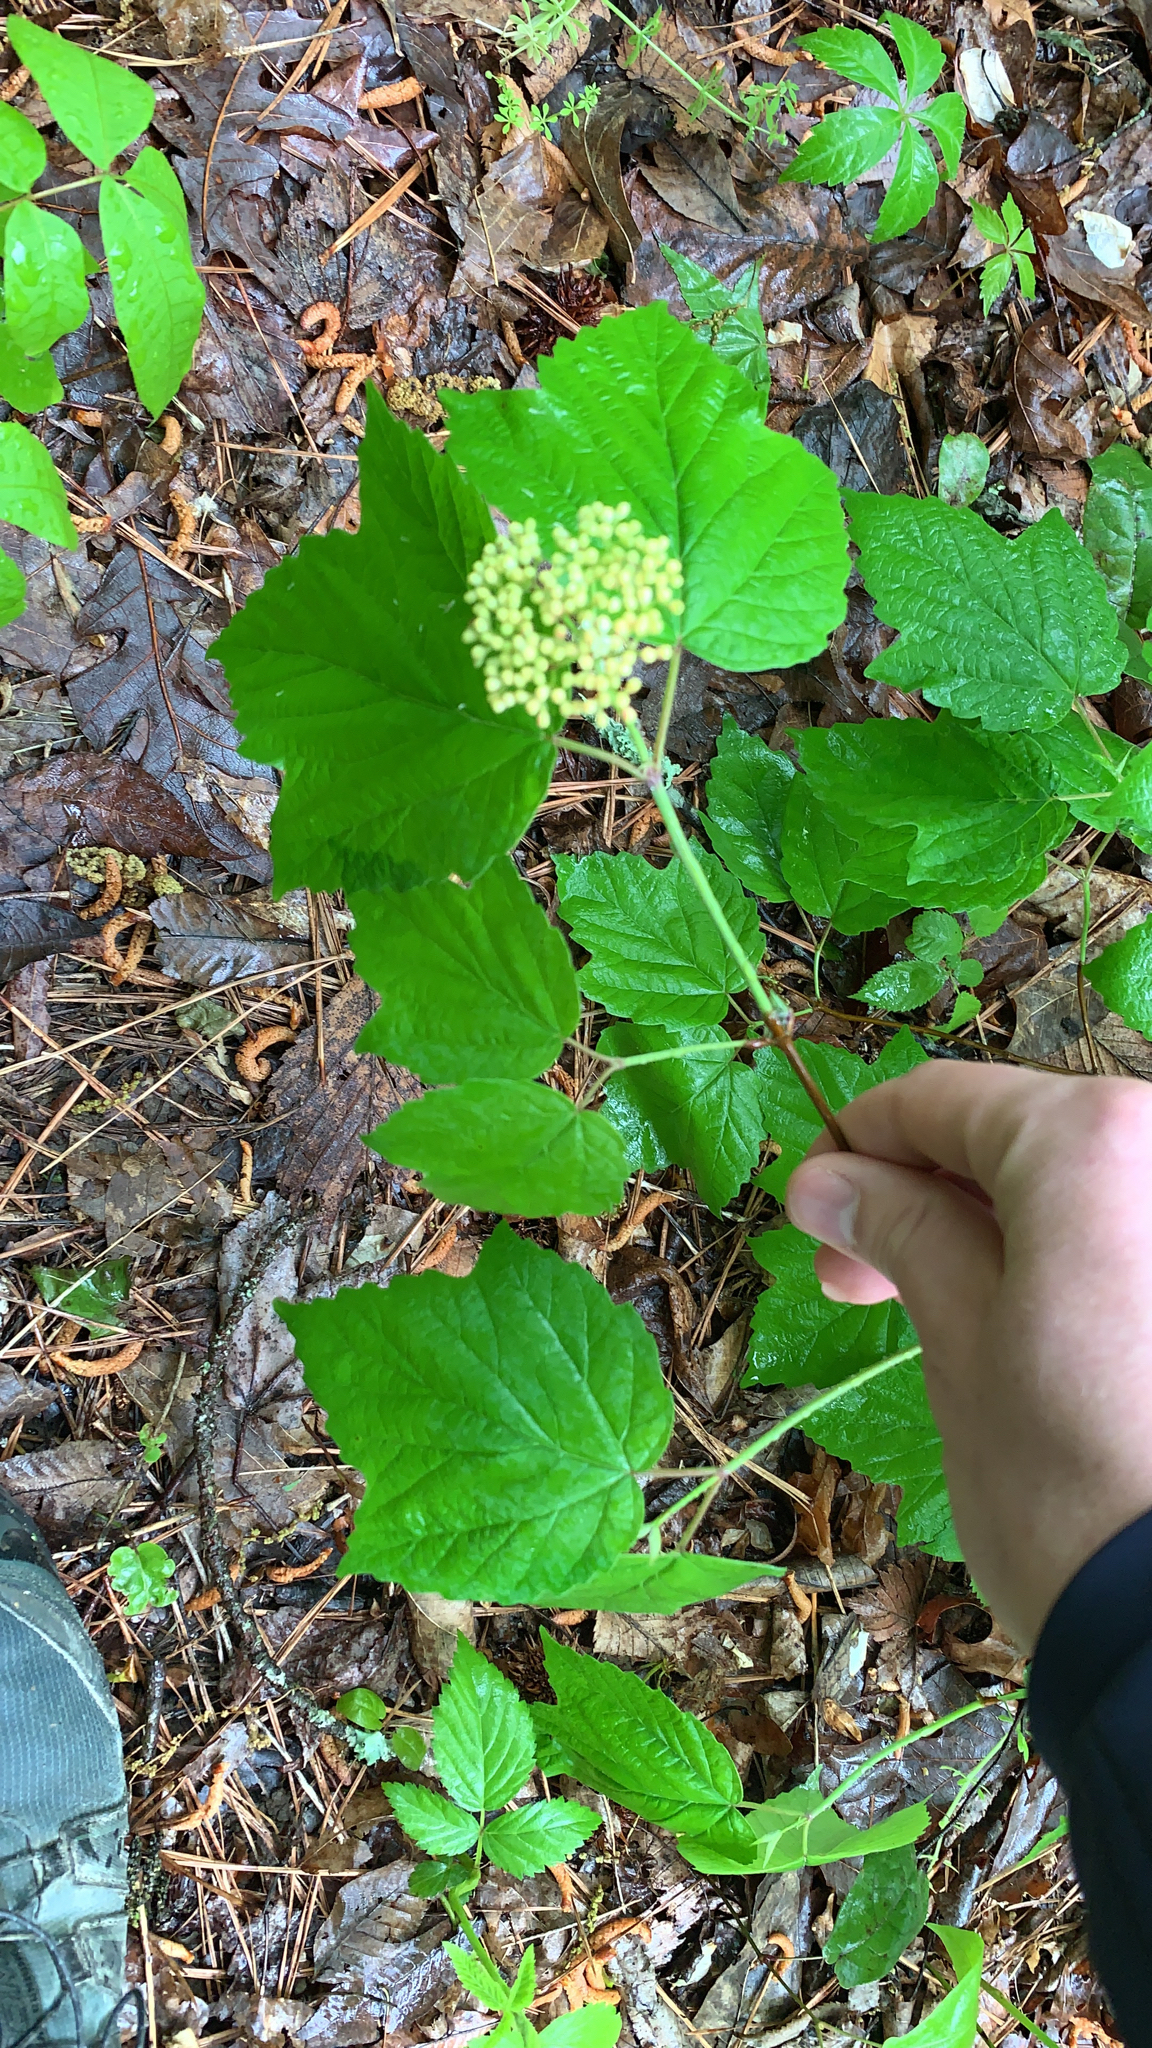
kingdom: Plantae
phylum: Tracheophyta
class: Magnoliopsida
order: Dipsacales
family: Viburnaceae
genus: Viburnum
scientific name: Viburnum acerifolium
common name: Dockmackie
